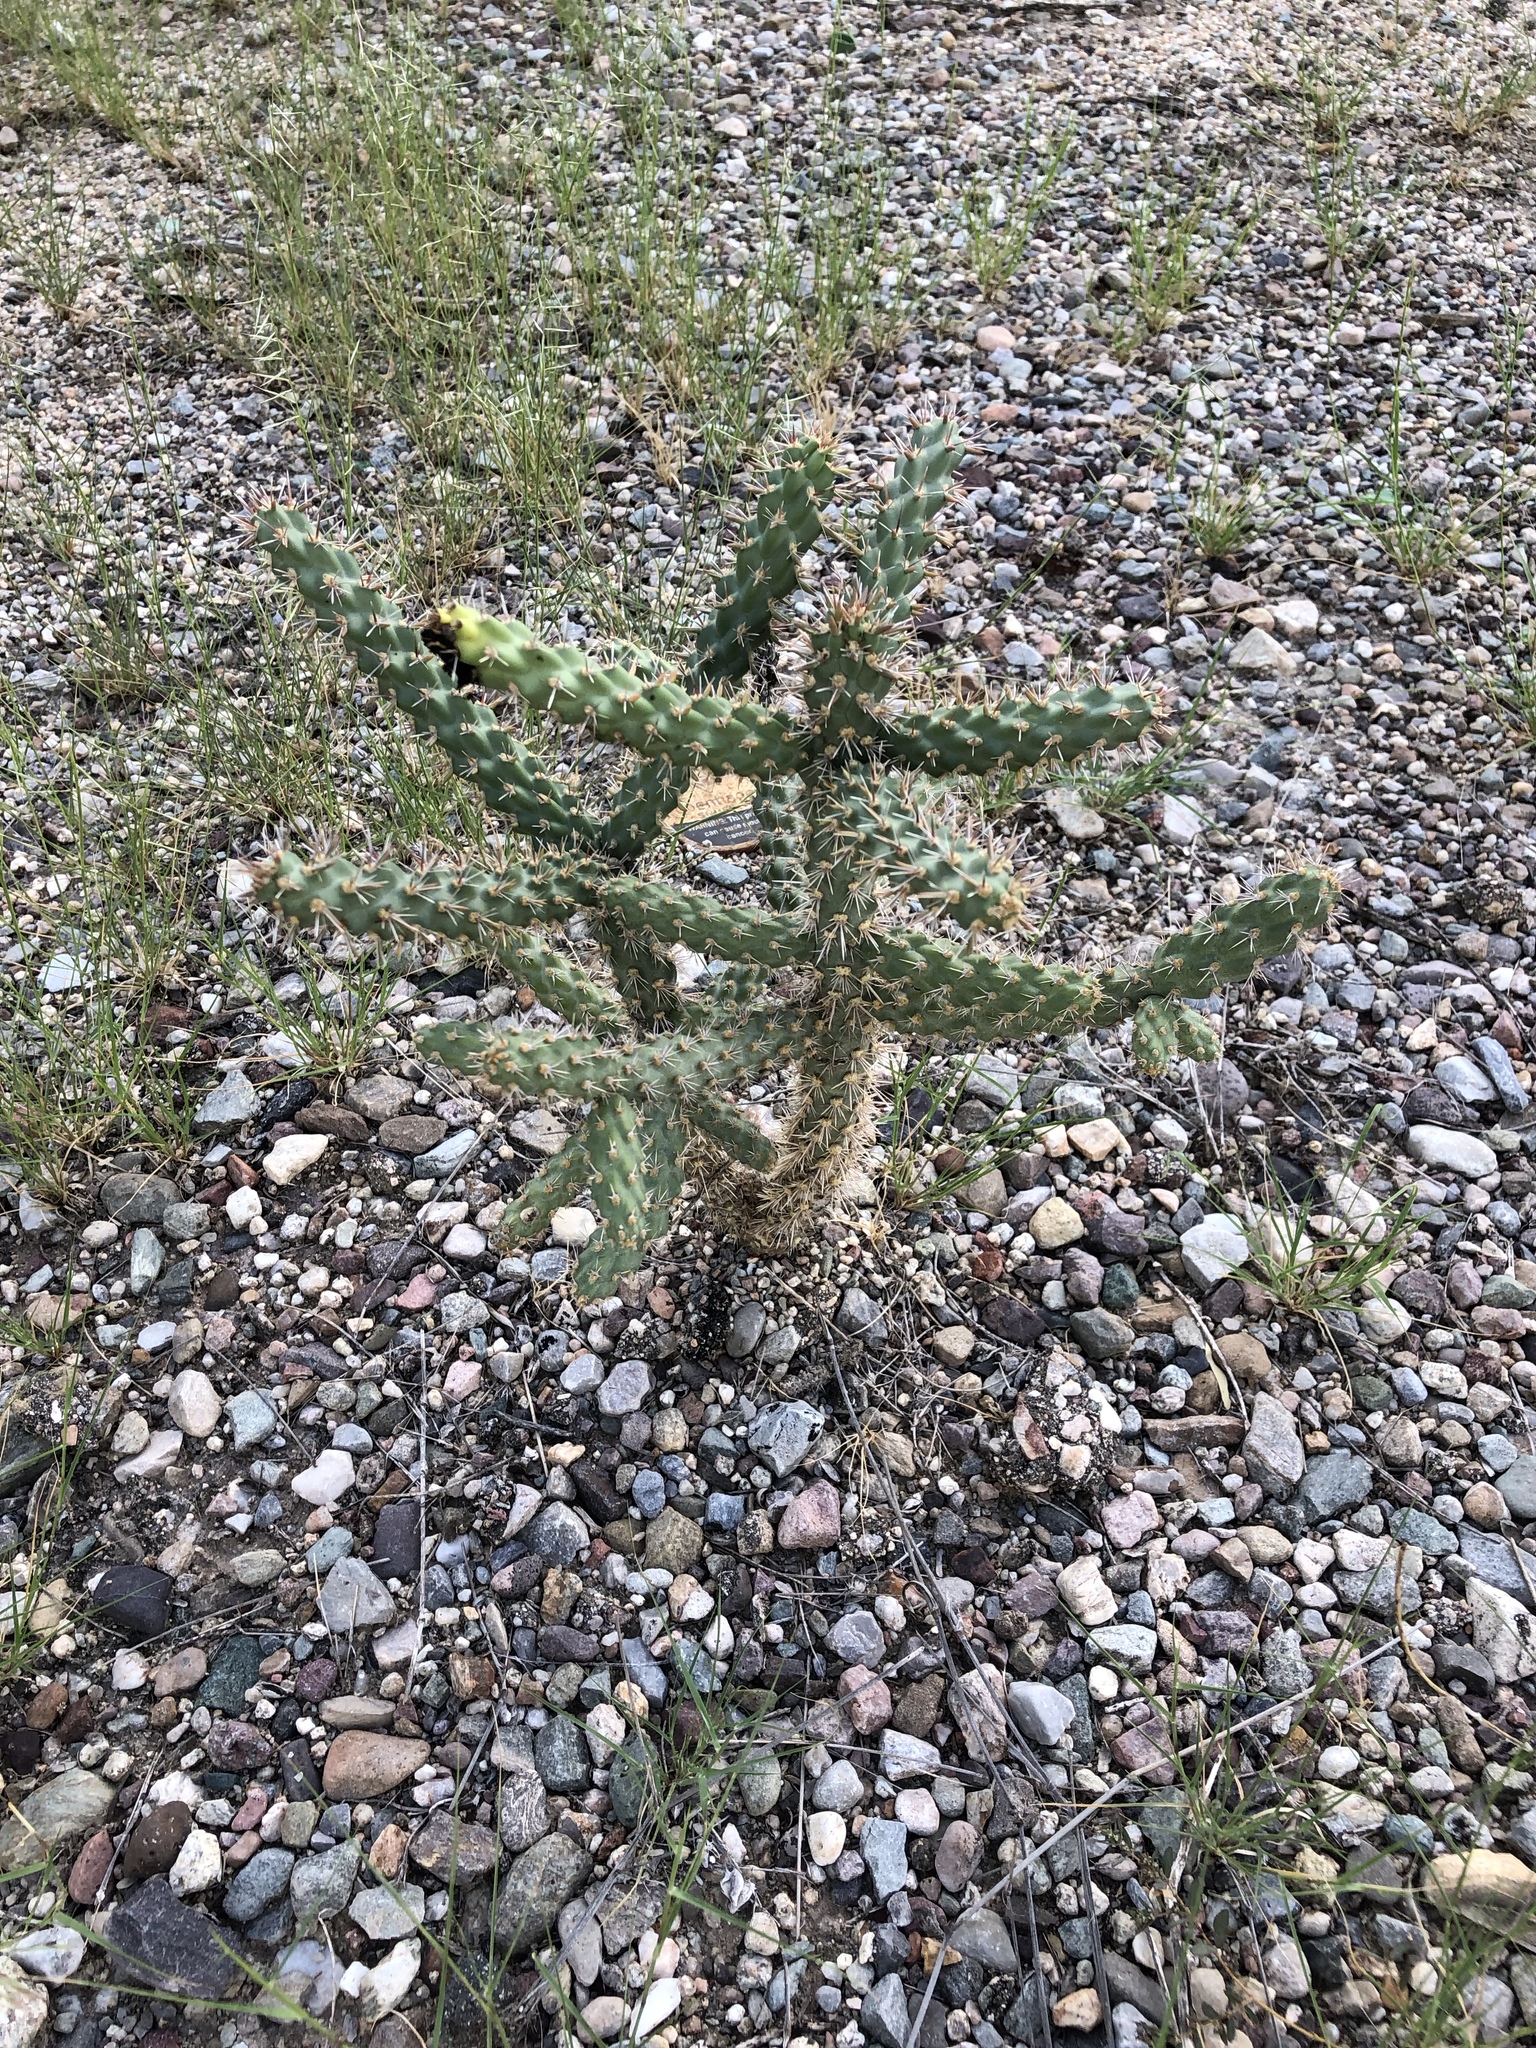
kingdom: Plantae
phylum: Tracheophyta
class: Magnoliopsida
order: Caryophyllales
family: Cactaceae
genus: Cylindropuntia
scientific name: Cylindropuntia imbricata
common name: Candelabrum cactus
